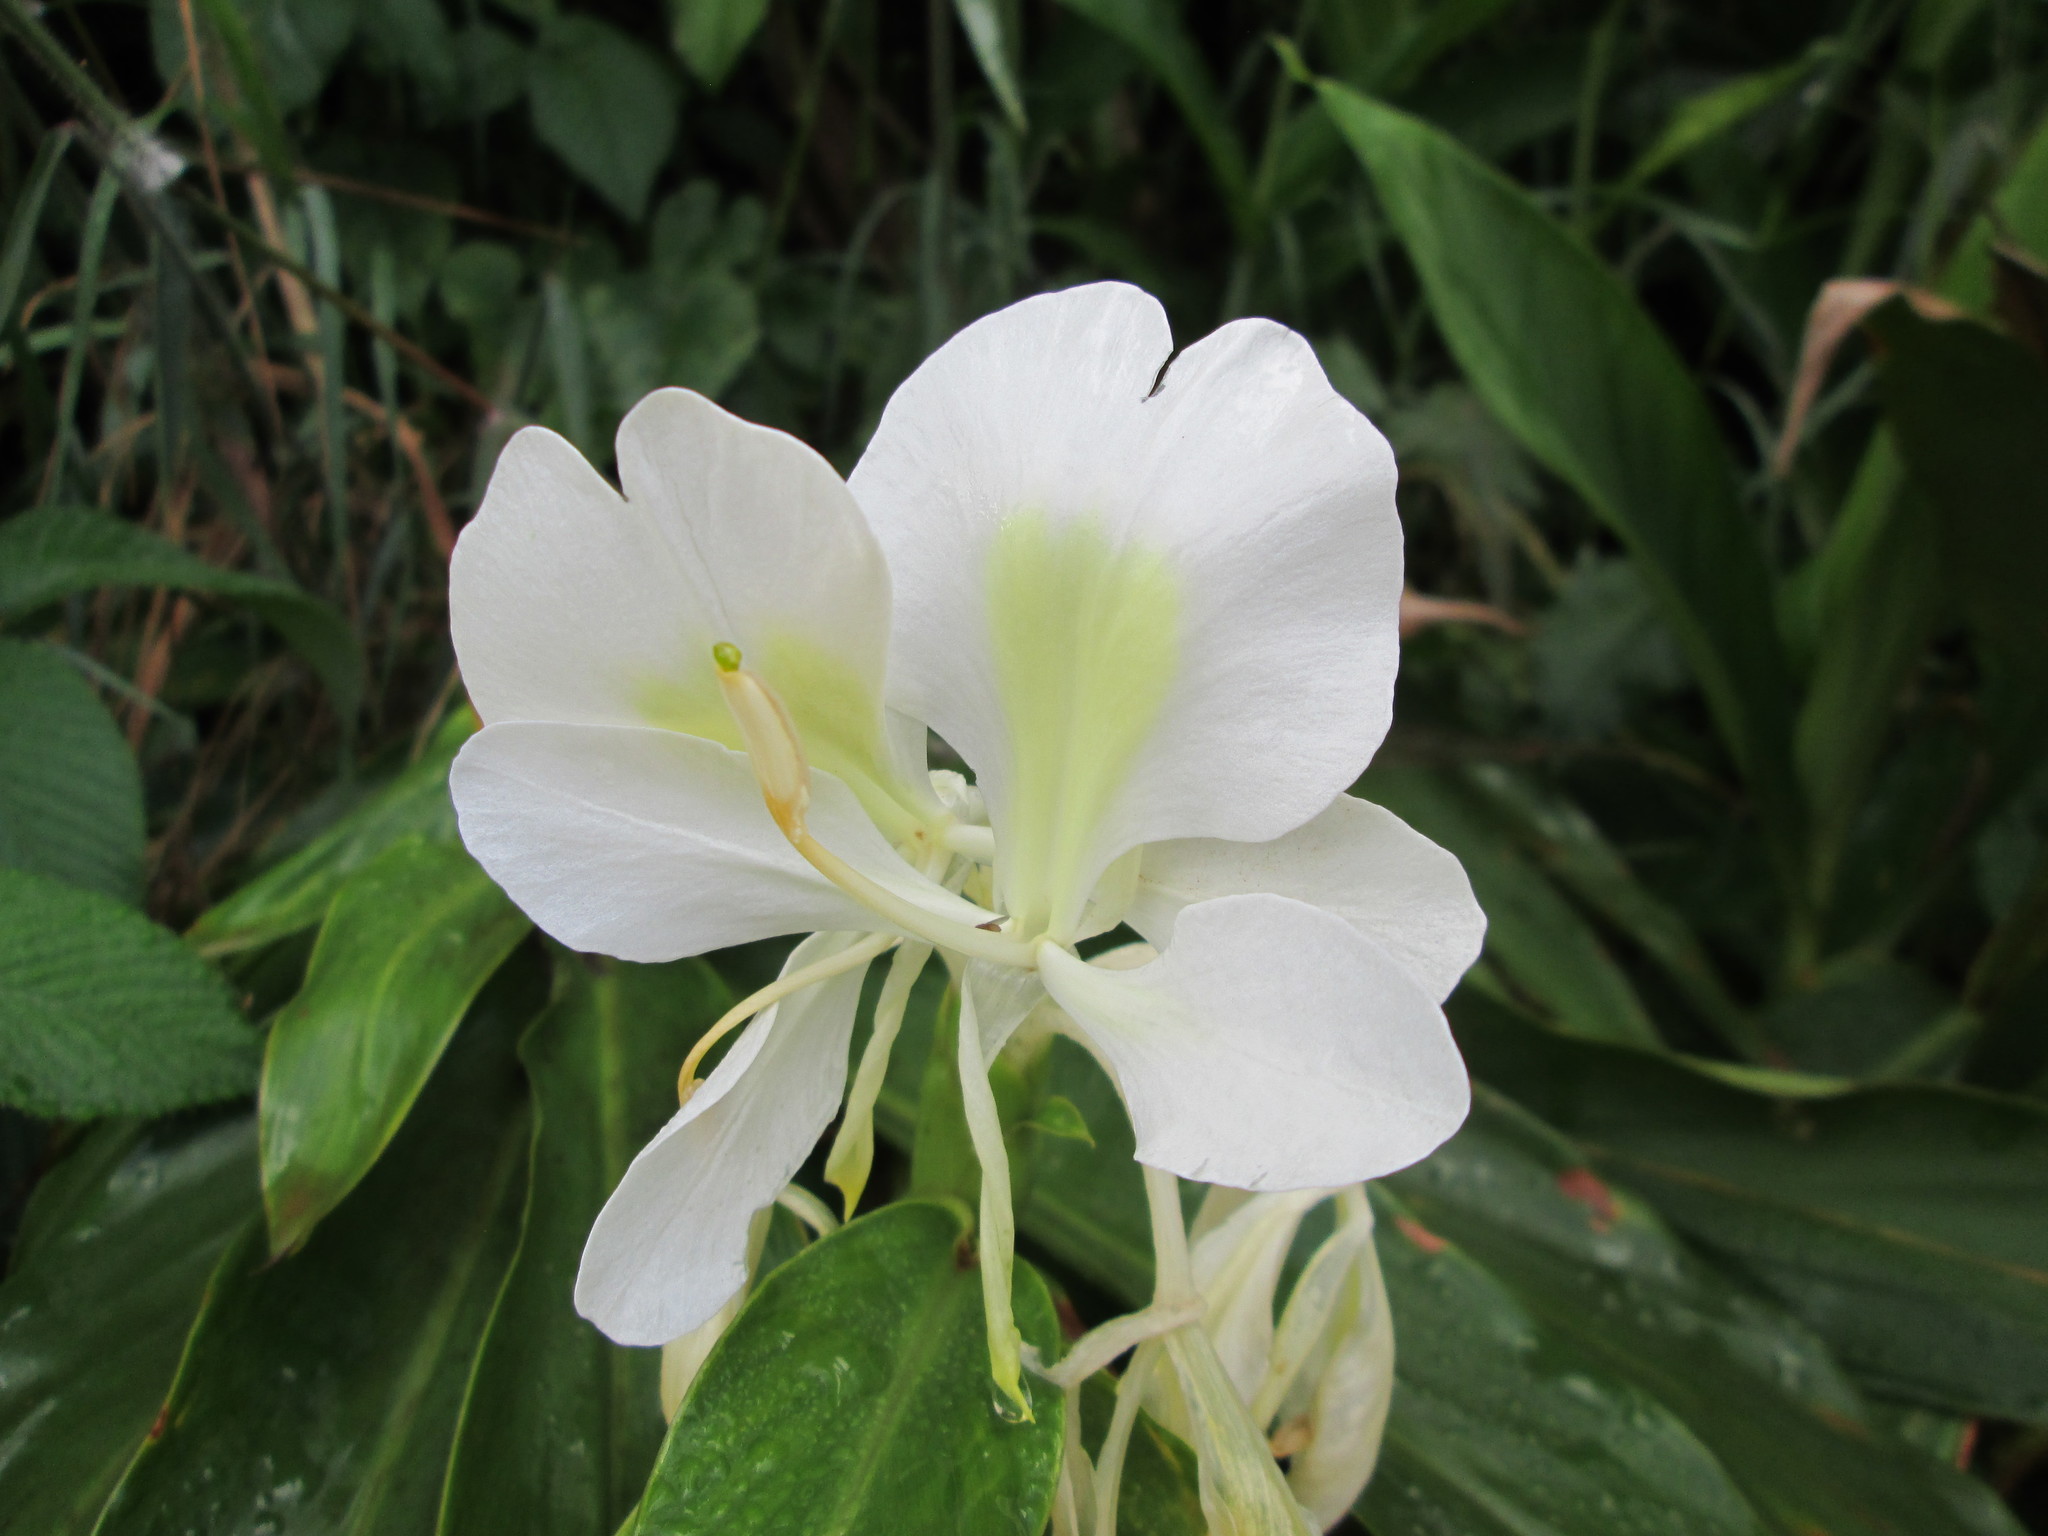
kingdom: Plantae
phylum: Tracheophyta
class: Liliopsida
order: Zingiberales
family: Zingiberaceae
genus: Hedychium
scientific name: Hedychium coronarium
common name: White garland-lily
